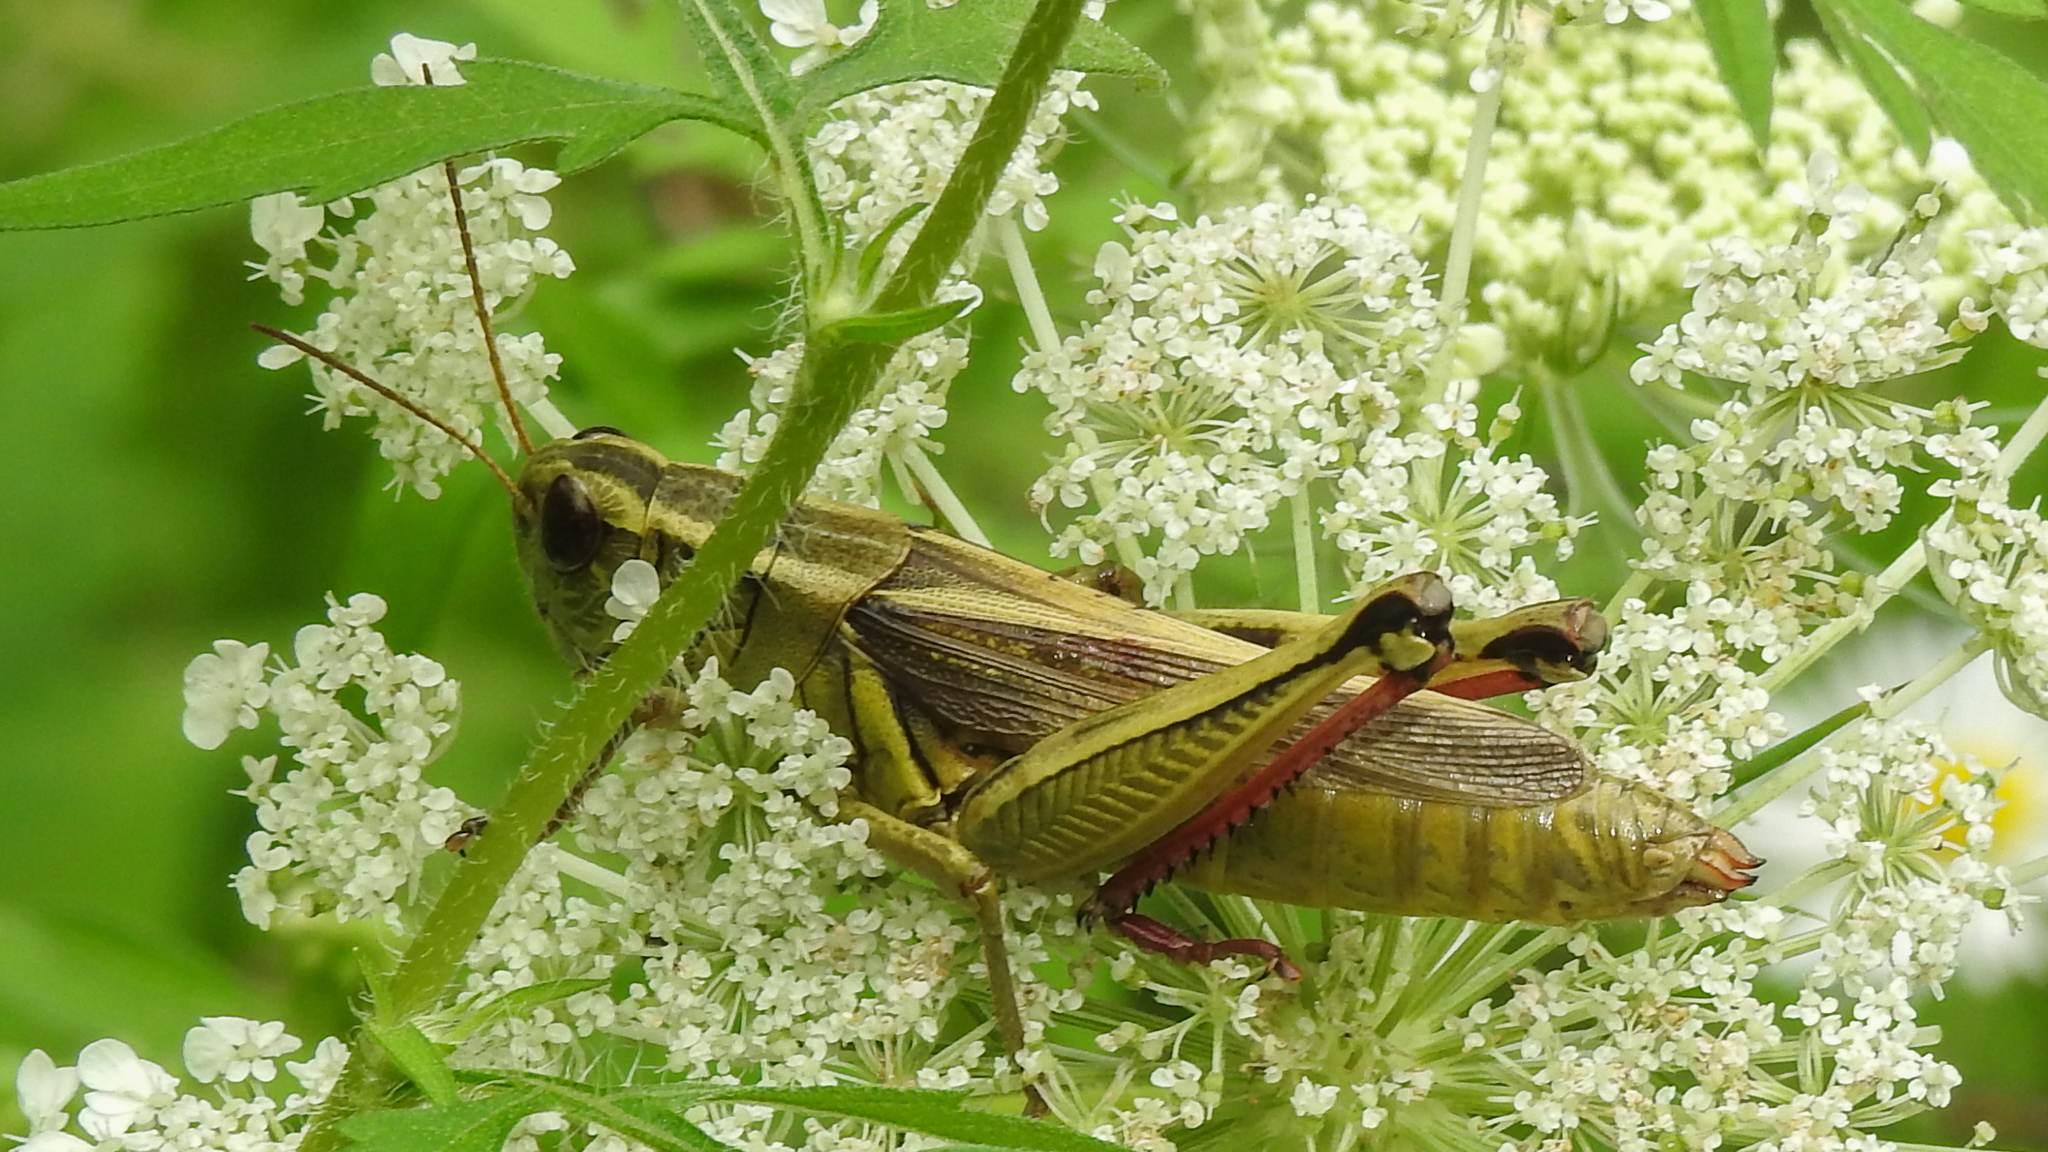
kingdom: Animalia
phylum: Arthropoda
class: Insecta
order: Orthoptera
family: Acrididae
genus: Melanoplus
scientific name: Melanoplus bivittatus
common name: Two-striped grasshopper
